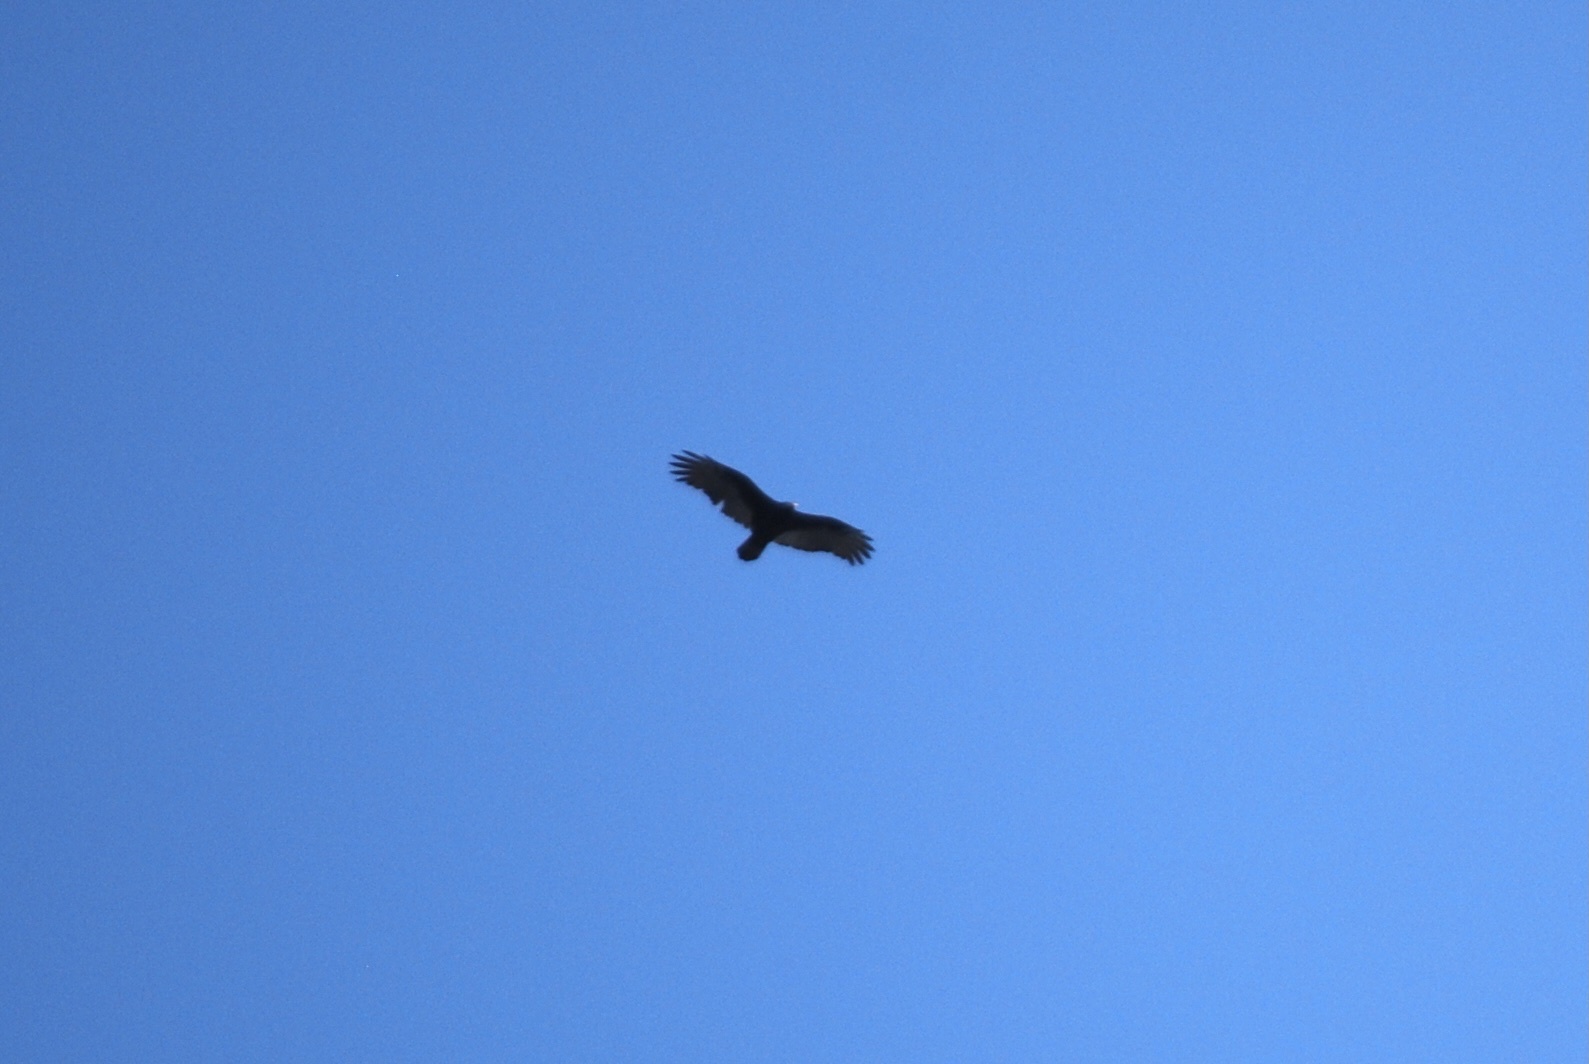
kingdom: Animalia
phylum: Chordata
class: Aves
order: Accipitriformes
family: Cathartidae
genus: Cathartes
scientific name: Cathartes aura
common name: Turkey vulture
